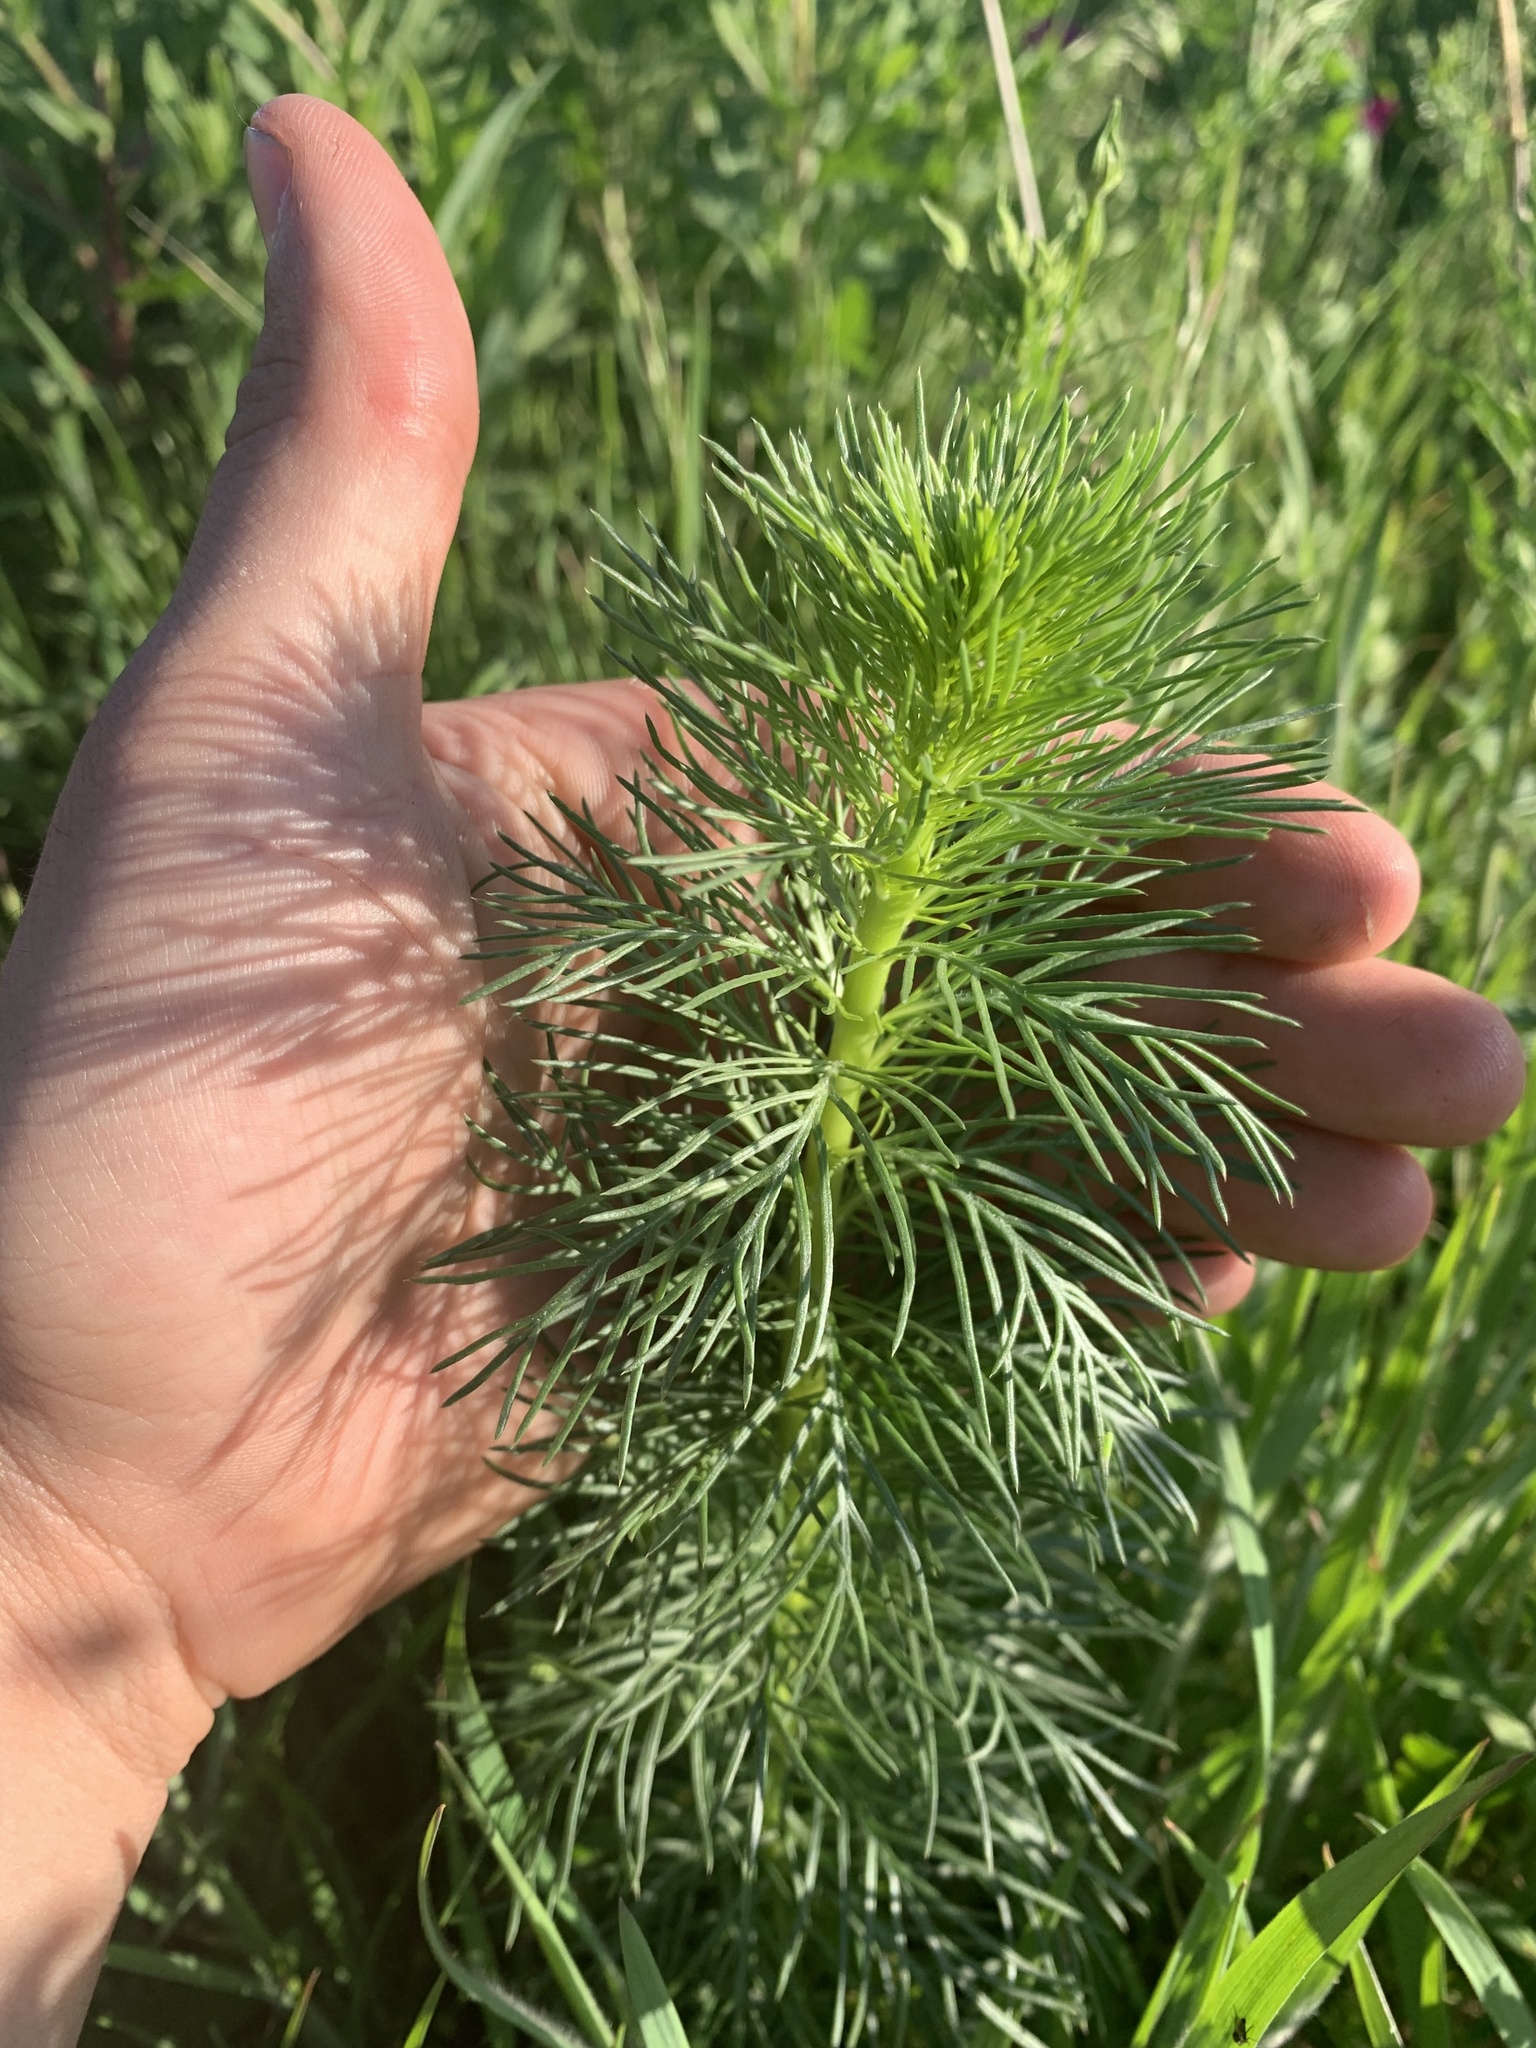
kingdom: Plantae
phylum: Tracheophyta
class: Magnoliopsida
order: Ericales
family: Polemoniaceae
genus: Ipomopsis
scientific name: Ipomopsis rubra
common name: Skyrocket
